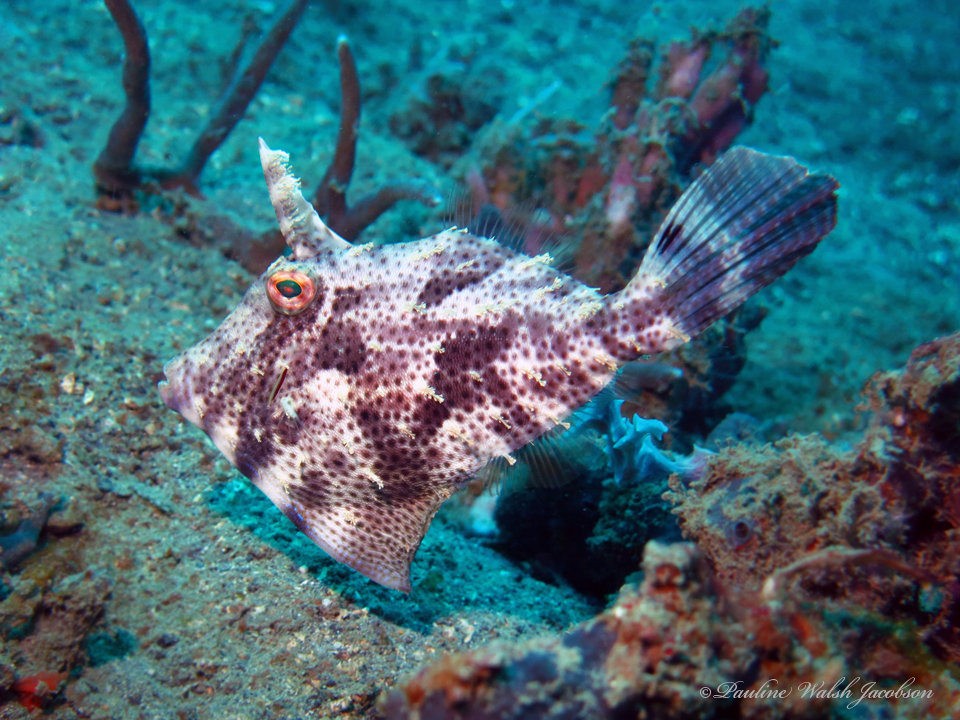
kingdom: Animalia
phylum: Chordata
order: Tetraodontiformes
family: Monacanthidae
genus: Pseudomonacanthus
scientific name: Pseudomonacanthus macrurus
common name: Blotchy filefish
